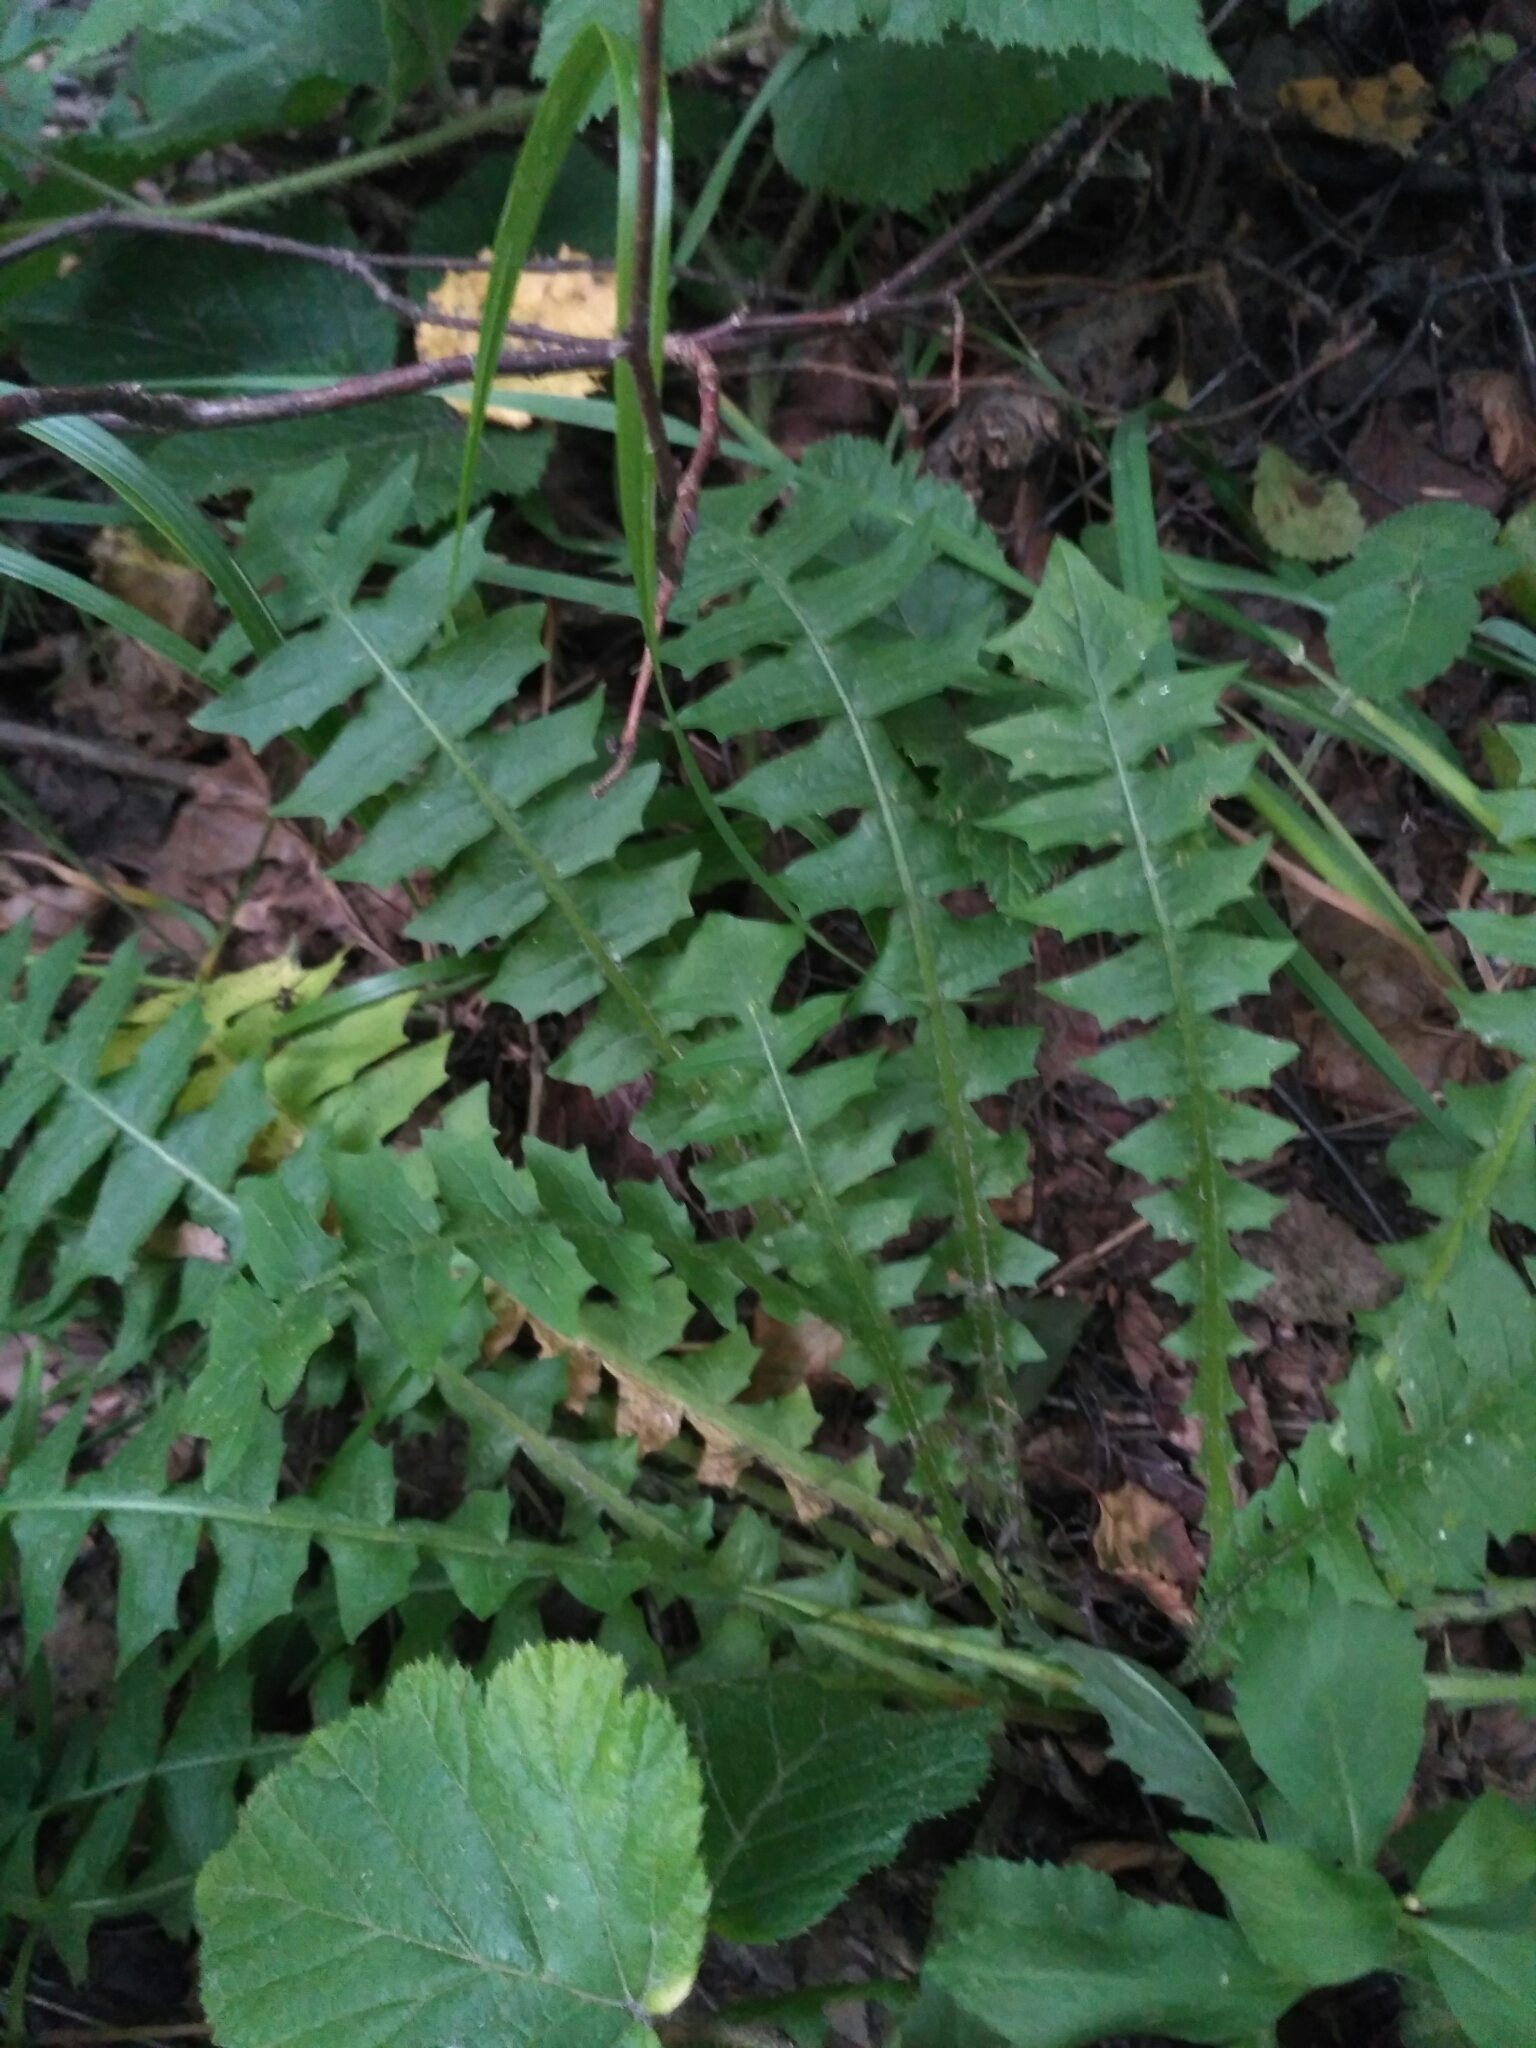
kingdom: Plantae
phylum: Tracheophyta
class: Magnoliopsida
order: Asterales
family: Asteraceae
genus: Aposeris
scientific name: Aposeris foetida
